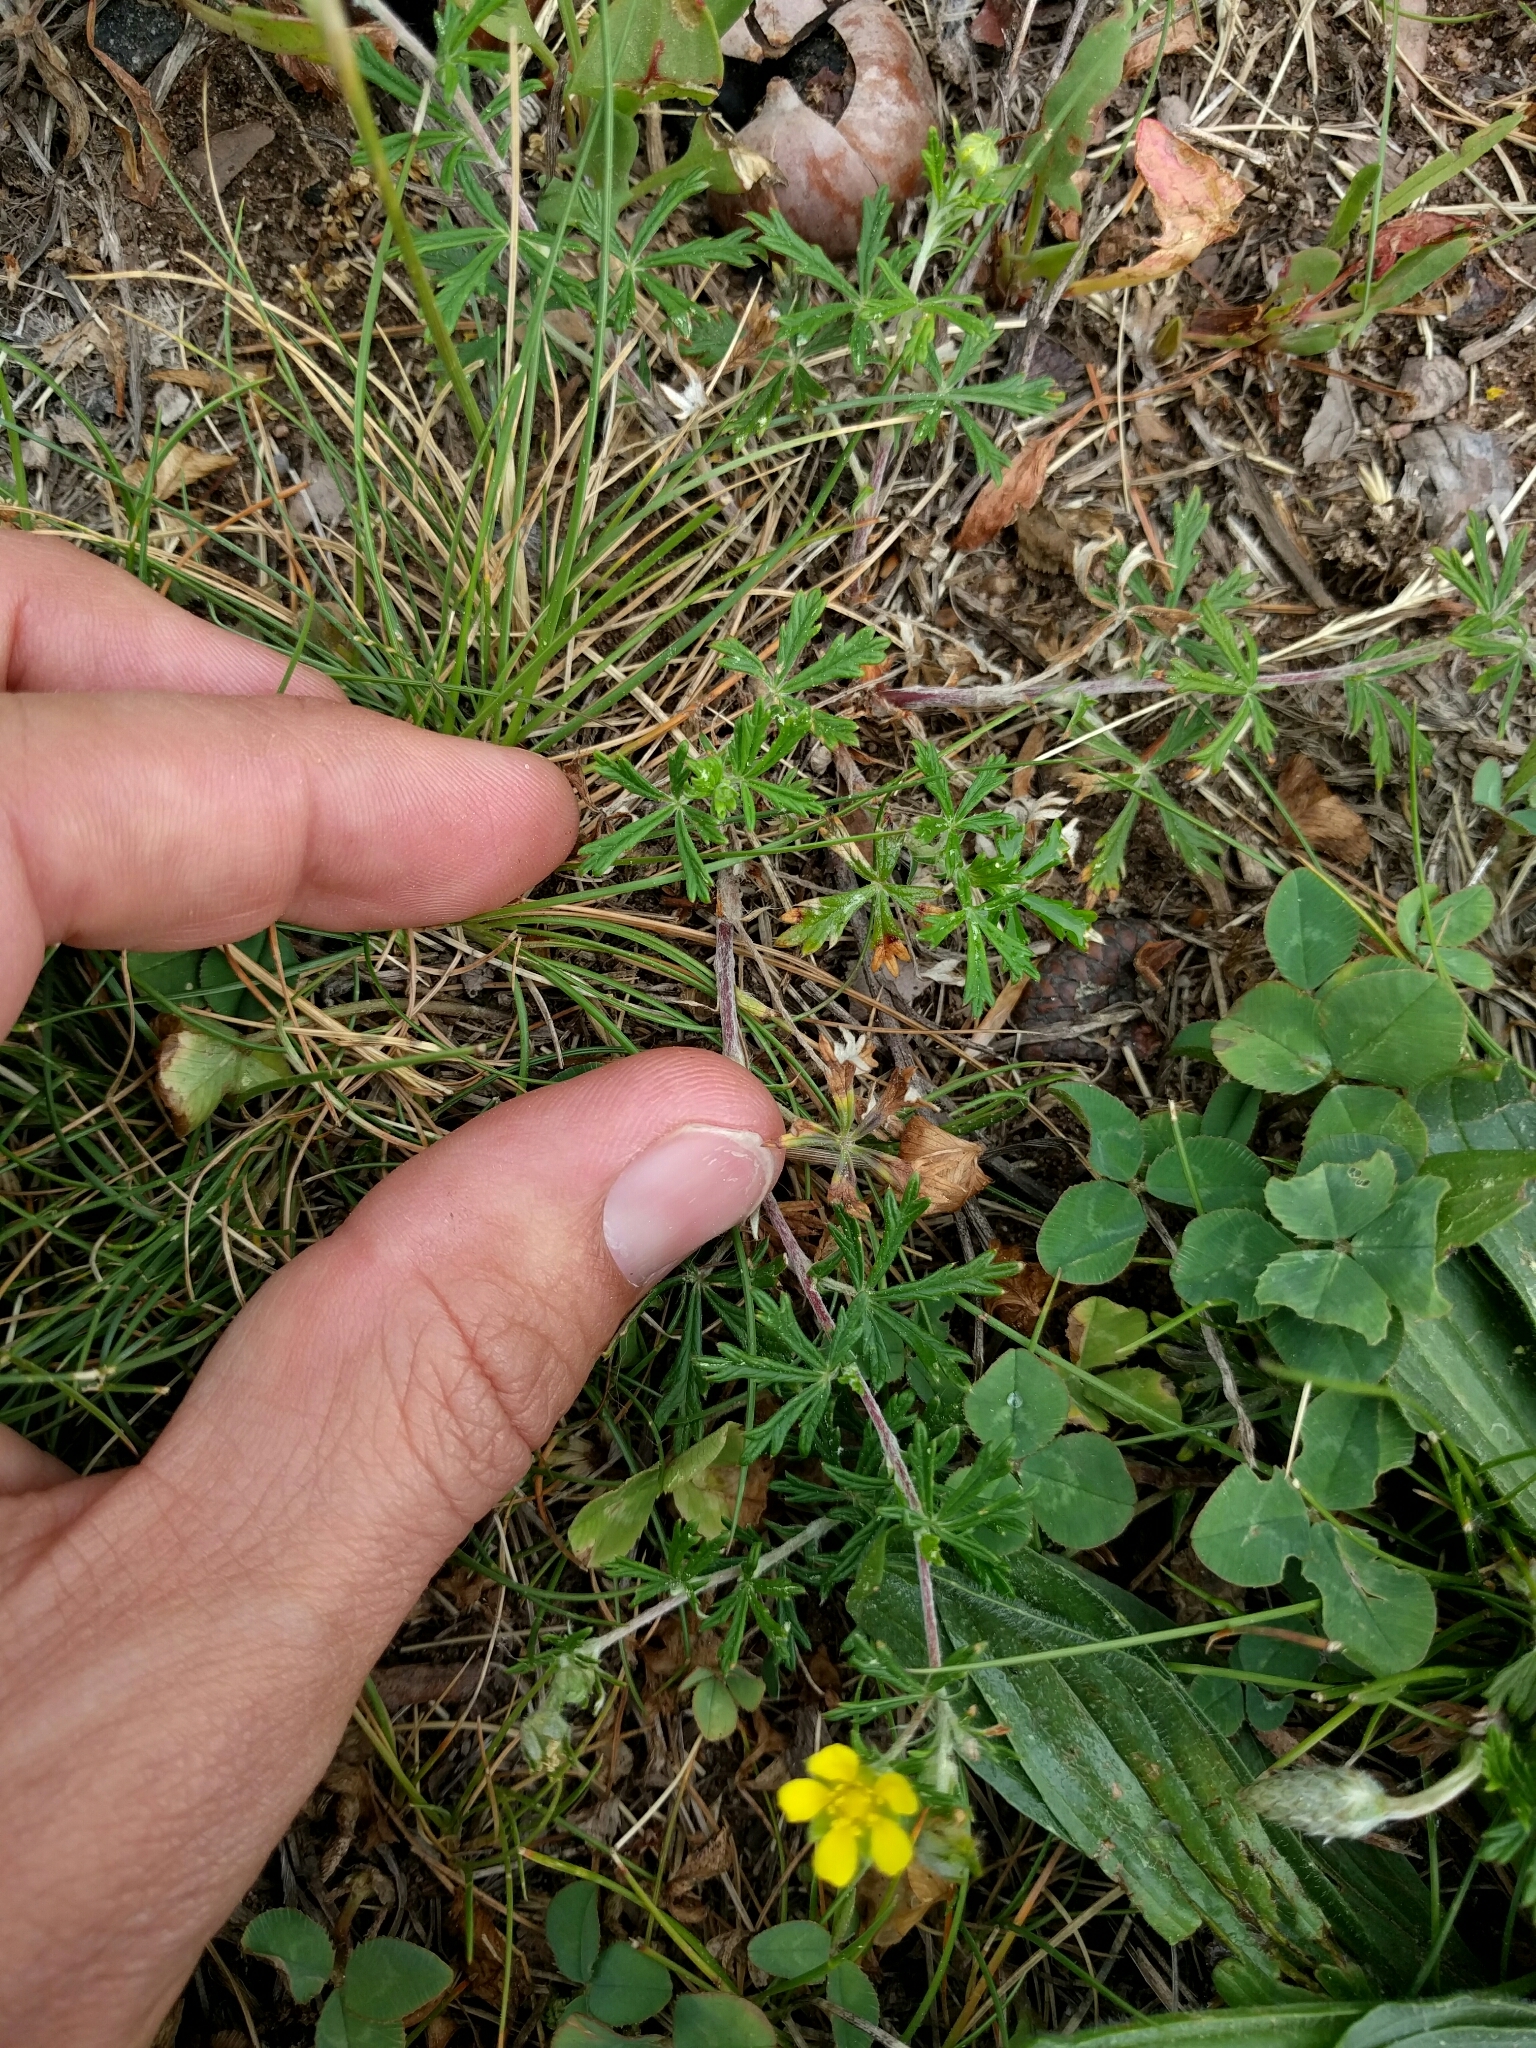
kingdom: Plantae
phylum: Tracheophyta
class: Magnoliopsida
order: Rosales
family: Rosaceae
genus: Potentilla
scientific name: Potentilla argentea
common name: Hoary cinquefoil
